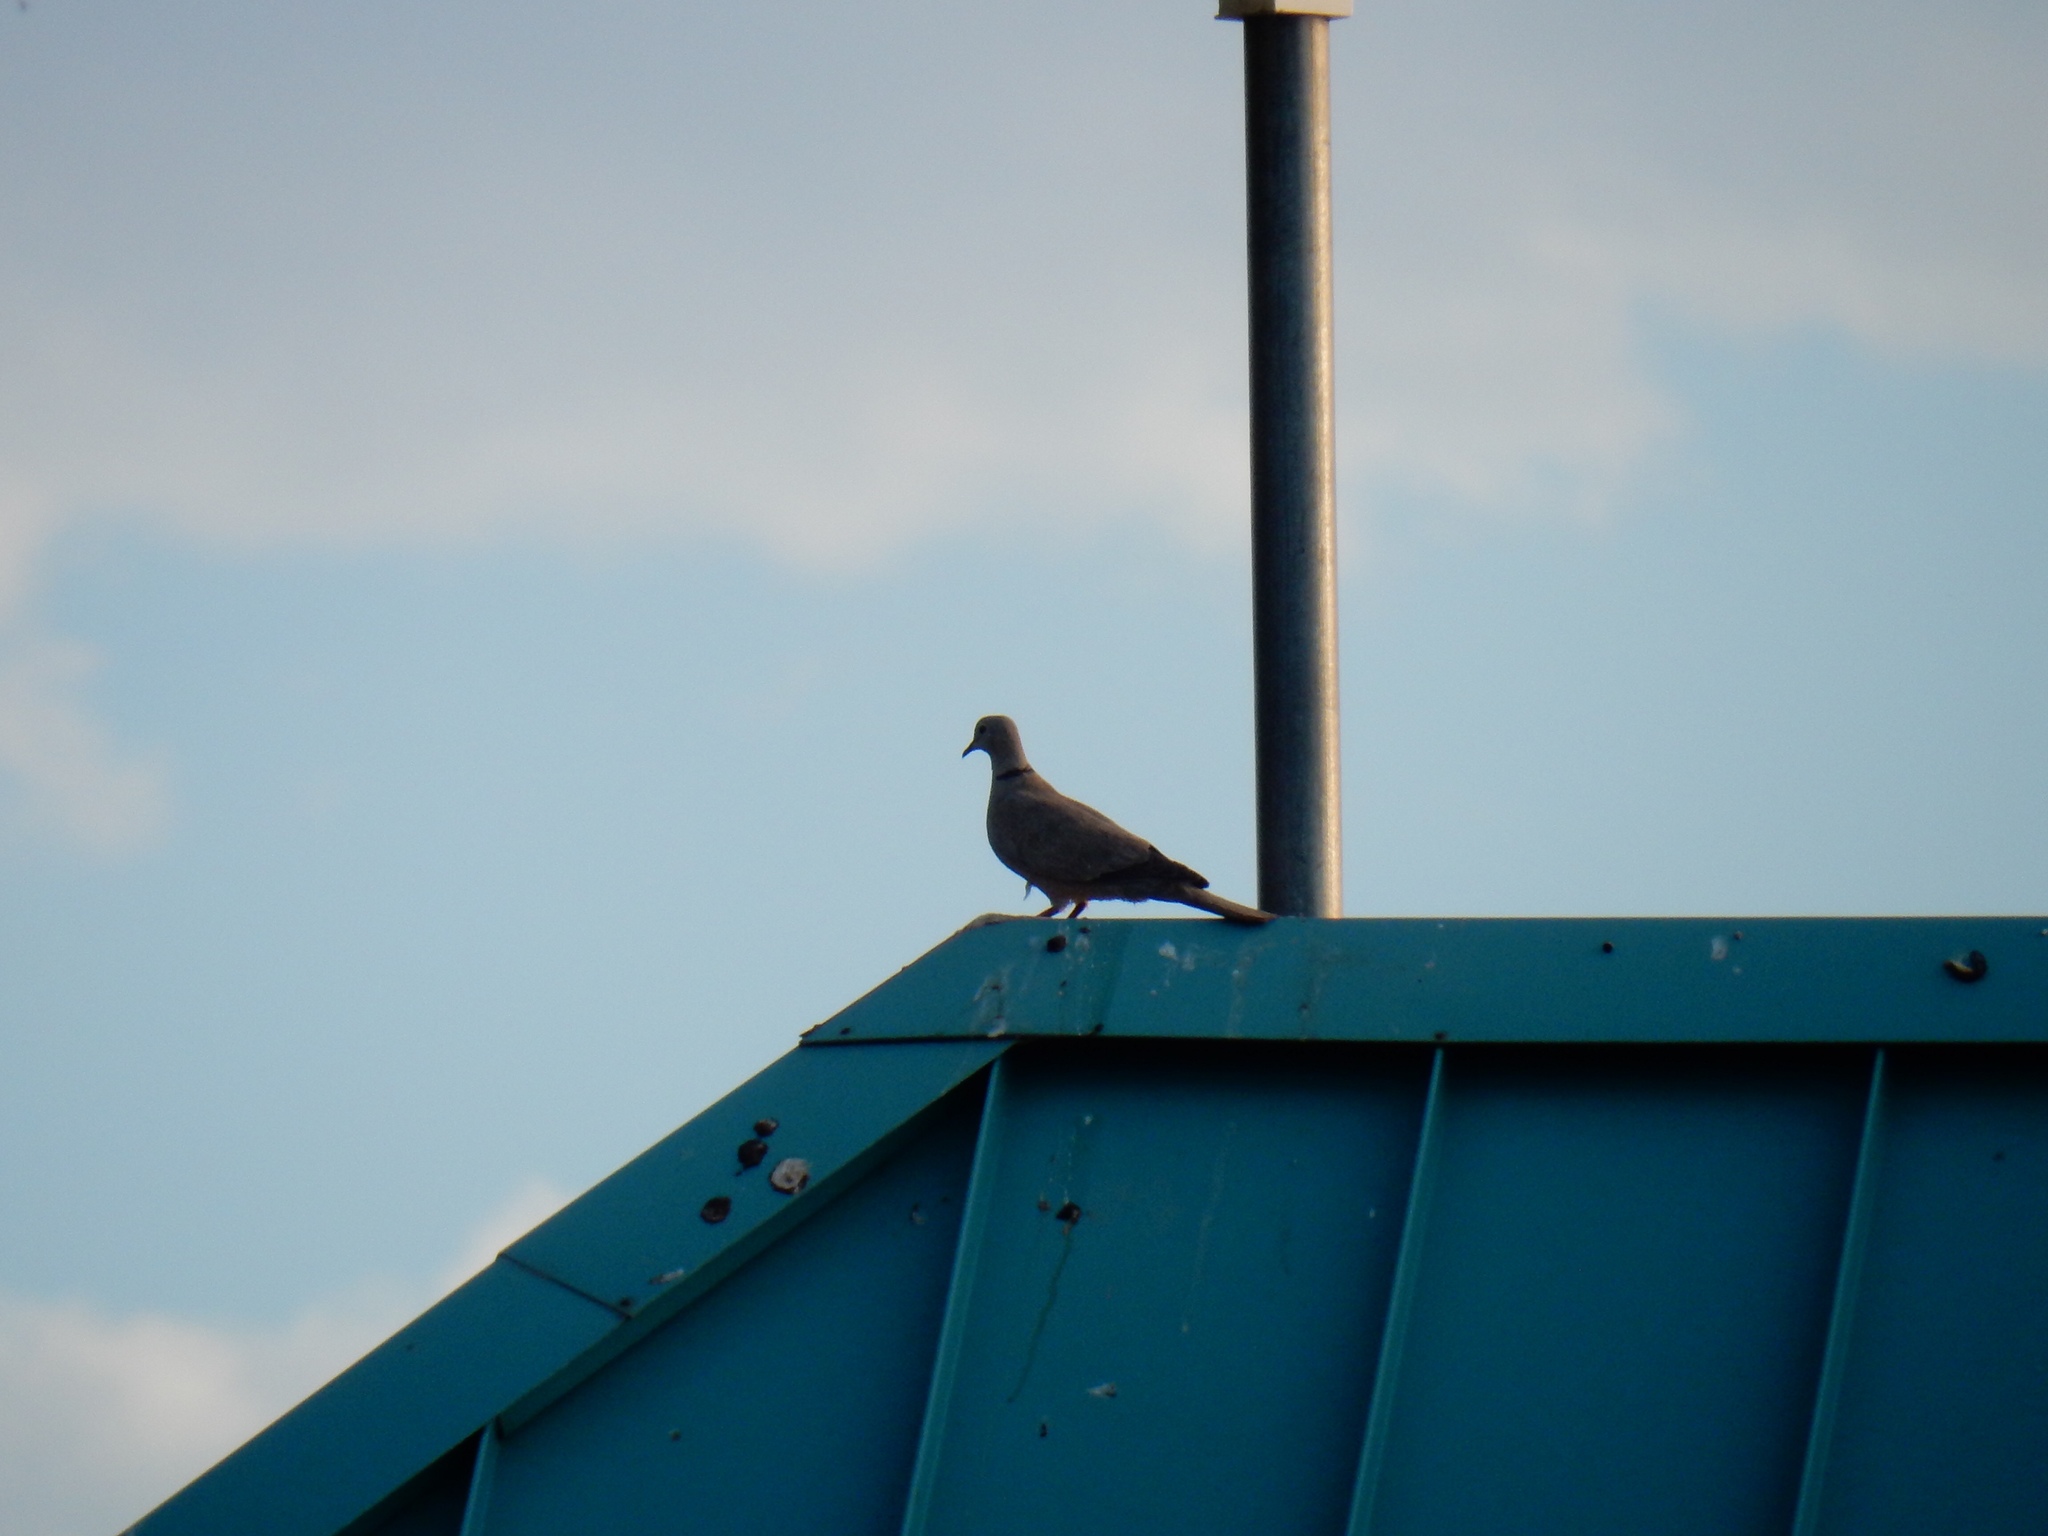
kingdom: Animalia
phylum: Chordata
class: Aves
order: Columbiformes
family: Columbidae
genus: Streptopelia
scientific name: Streptopelia decaocto
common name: Eurasian collared dove
